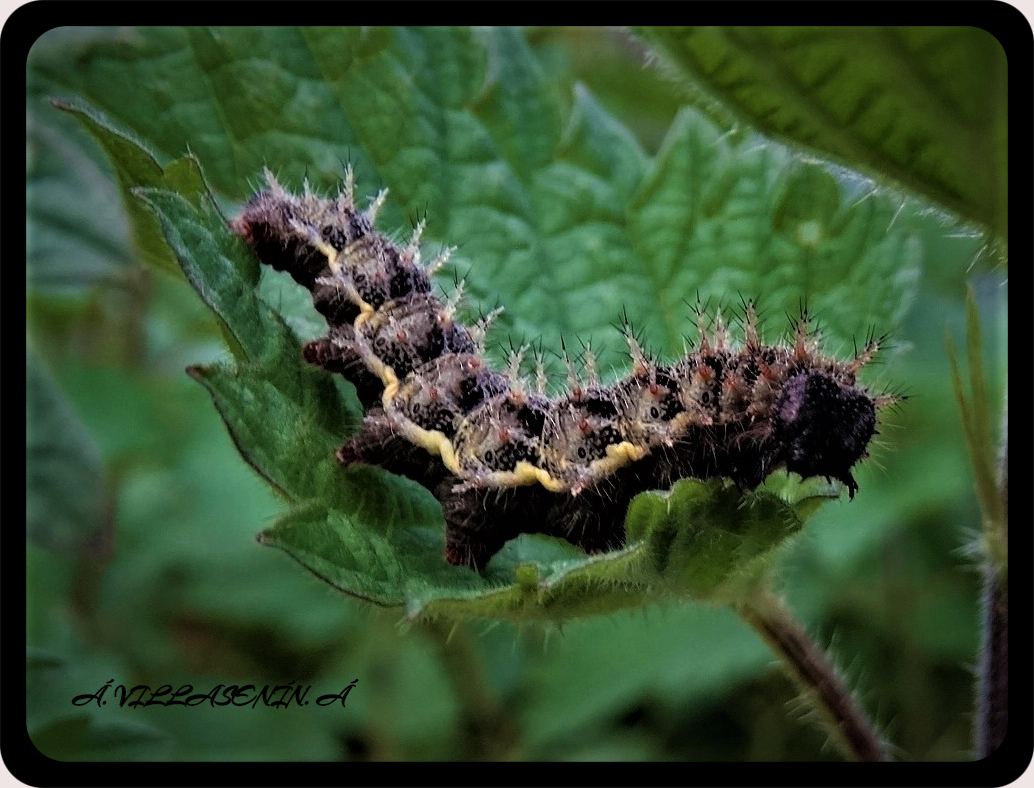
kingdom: Animalia
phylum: Arthropoda
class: Insecta
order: Lepidoptera
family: Nymphalidae
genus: Vanessa
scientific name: Vanessa atalanta
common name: Red admiral
